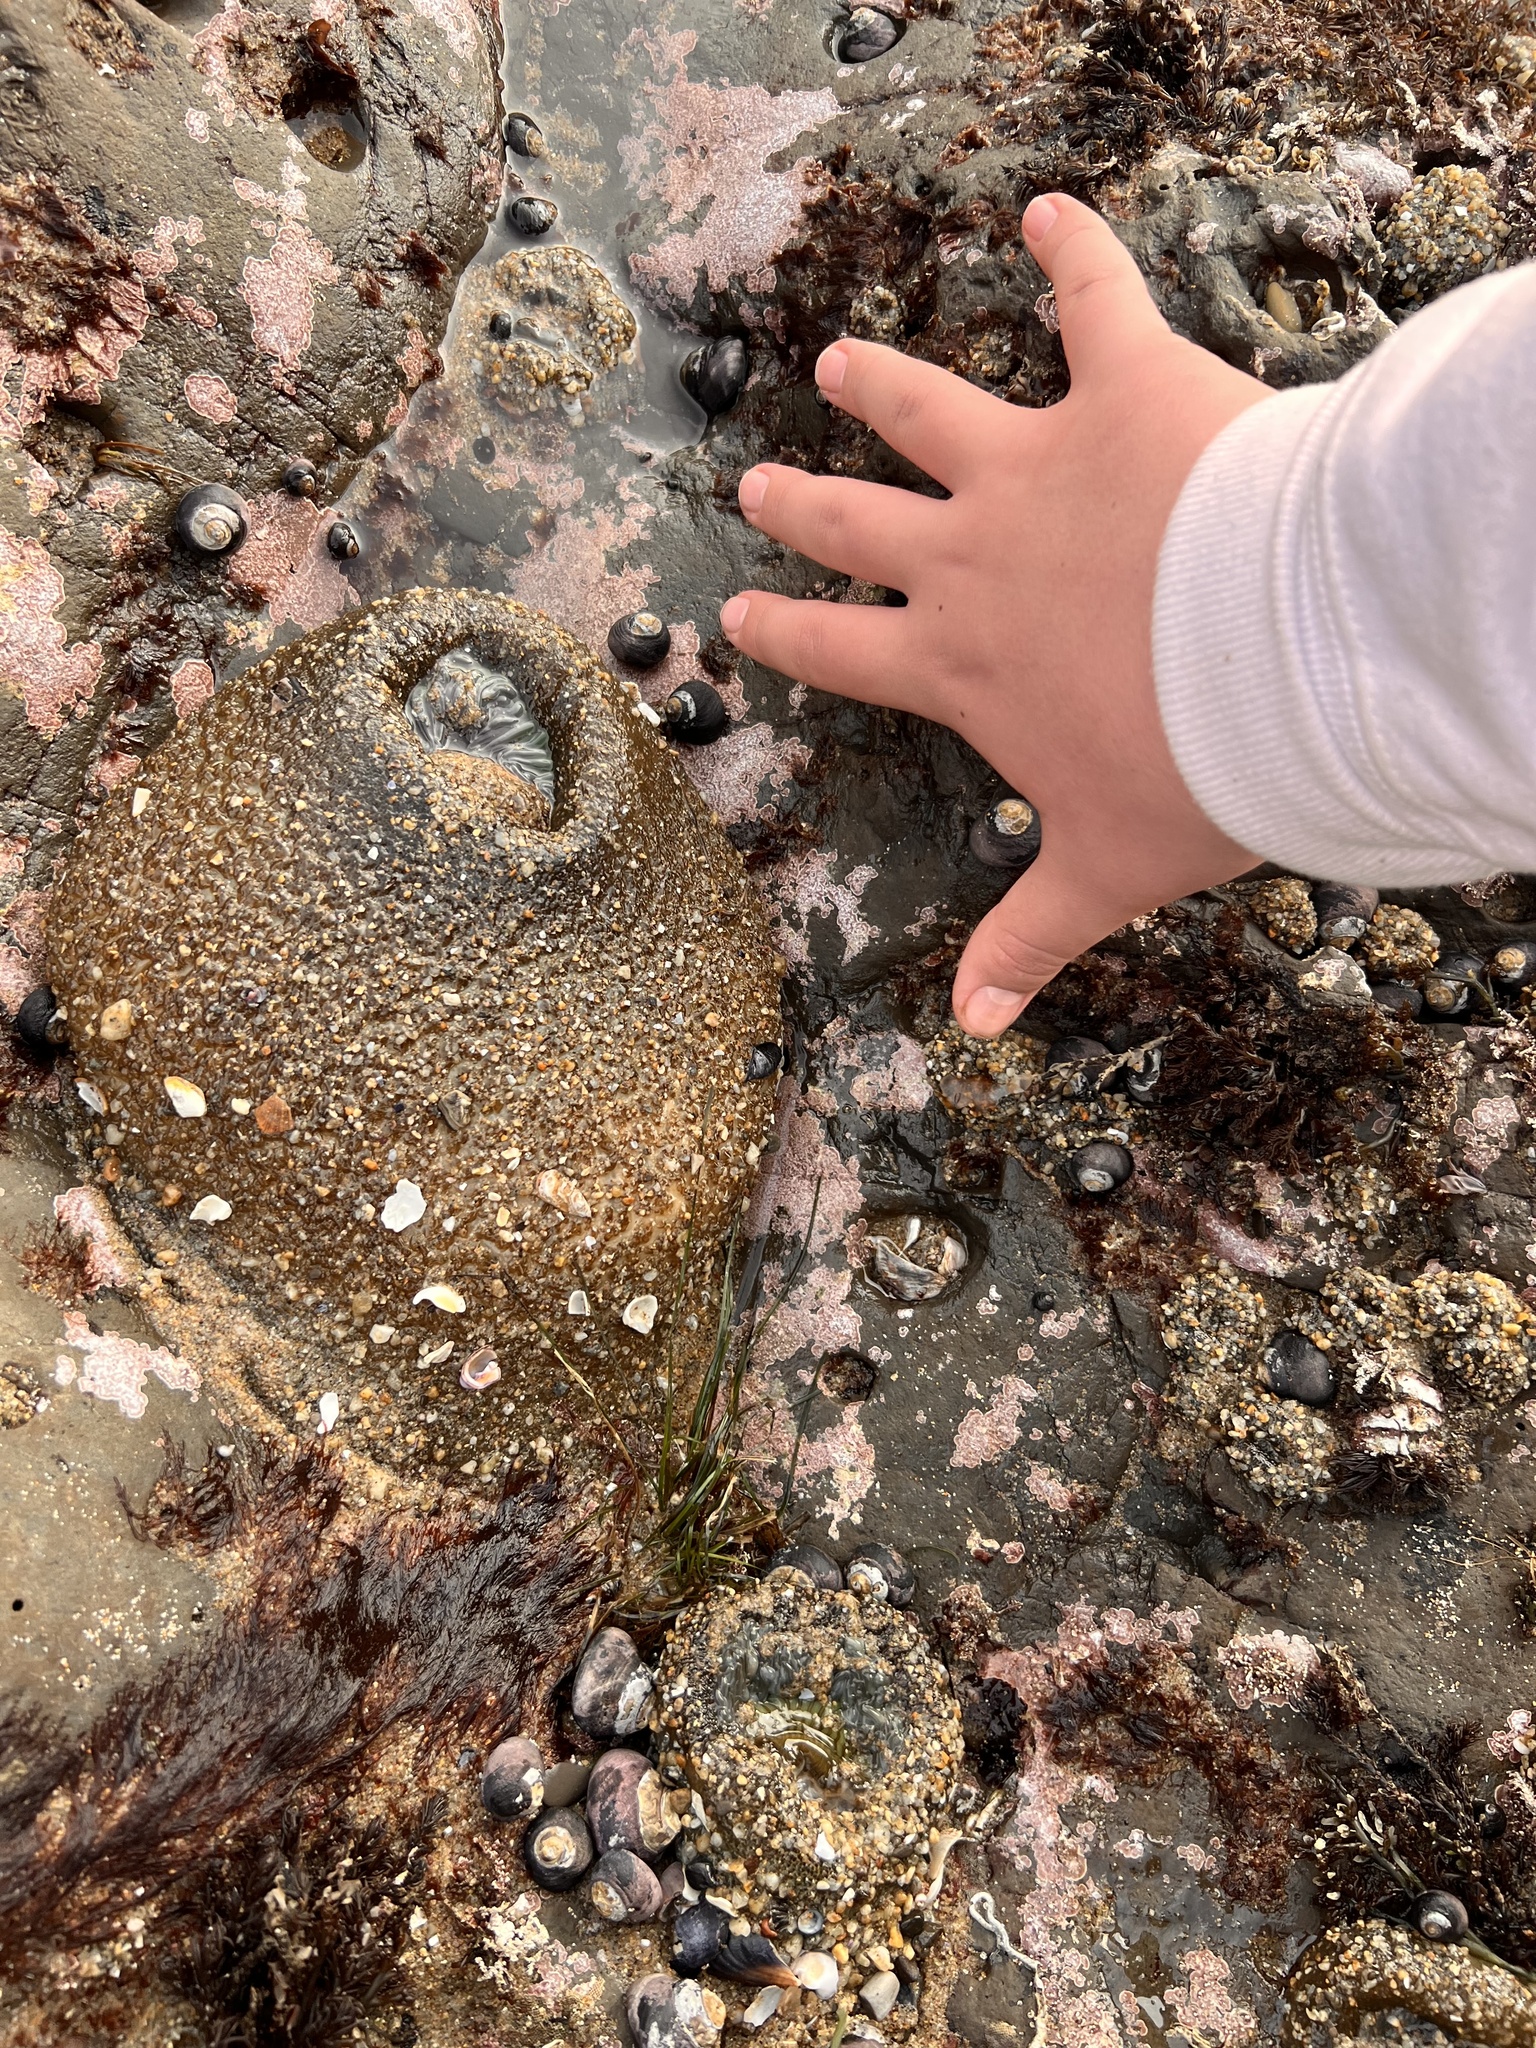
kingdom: Animalia
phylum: Cnidaria
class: Anthozoa
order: Actiniaria
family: Actiniidae
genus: Anthopleura
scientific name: Anthopleura xanthogrammica
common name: Giant green anemone
